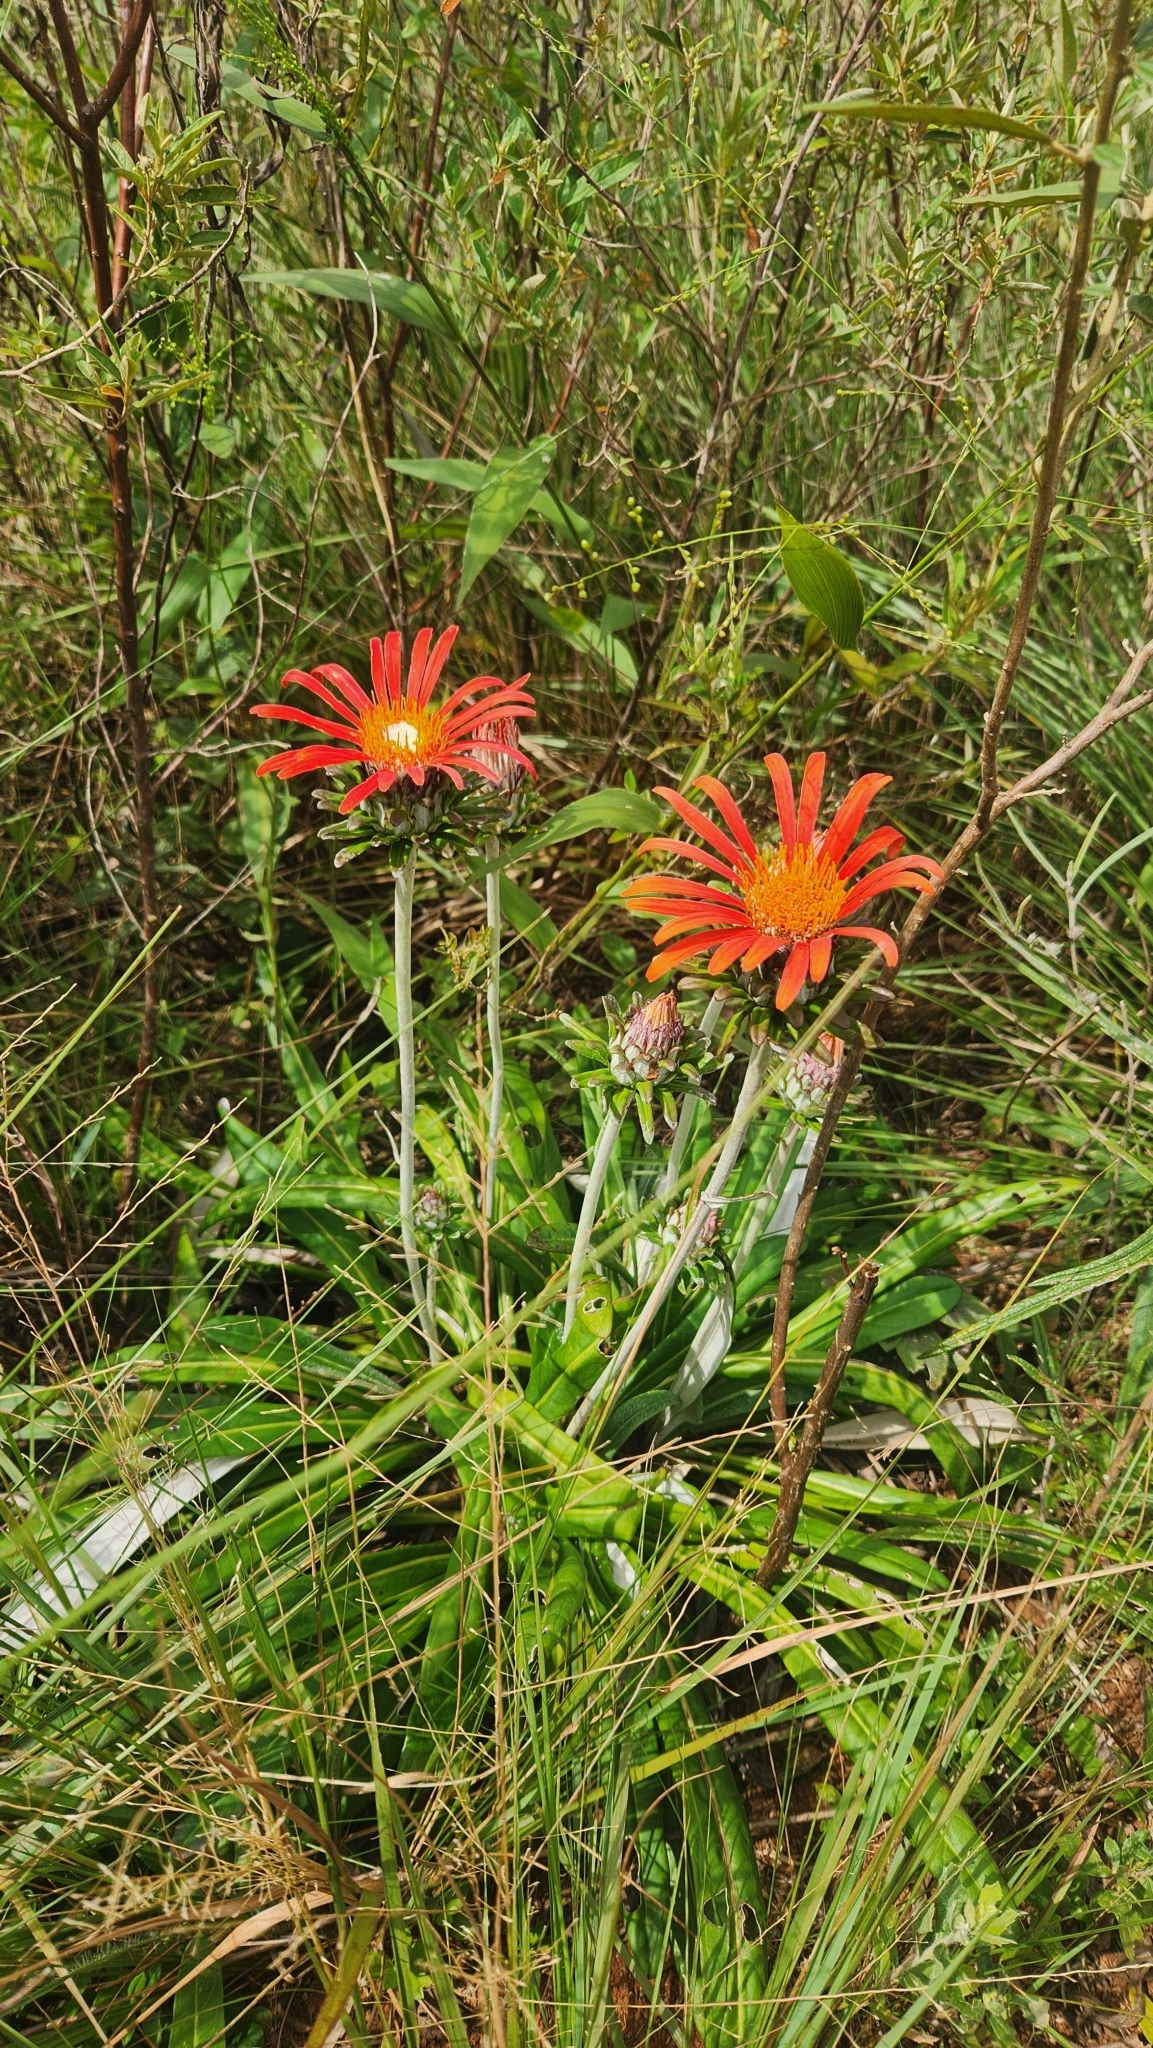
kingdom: Plantae
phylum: Tracheophyta
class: Magnoliopsida
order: Asterales
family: Asteraceae
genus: Trichocline
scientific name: Trichocline macrocephala
